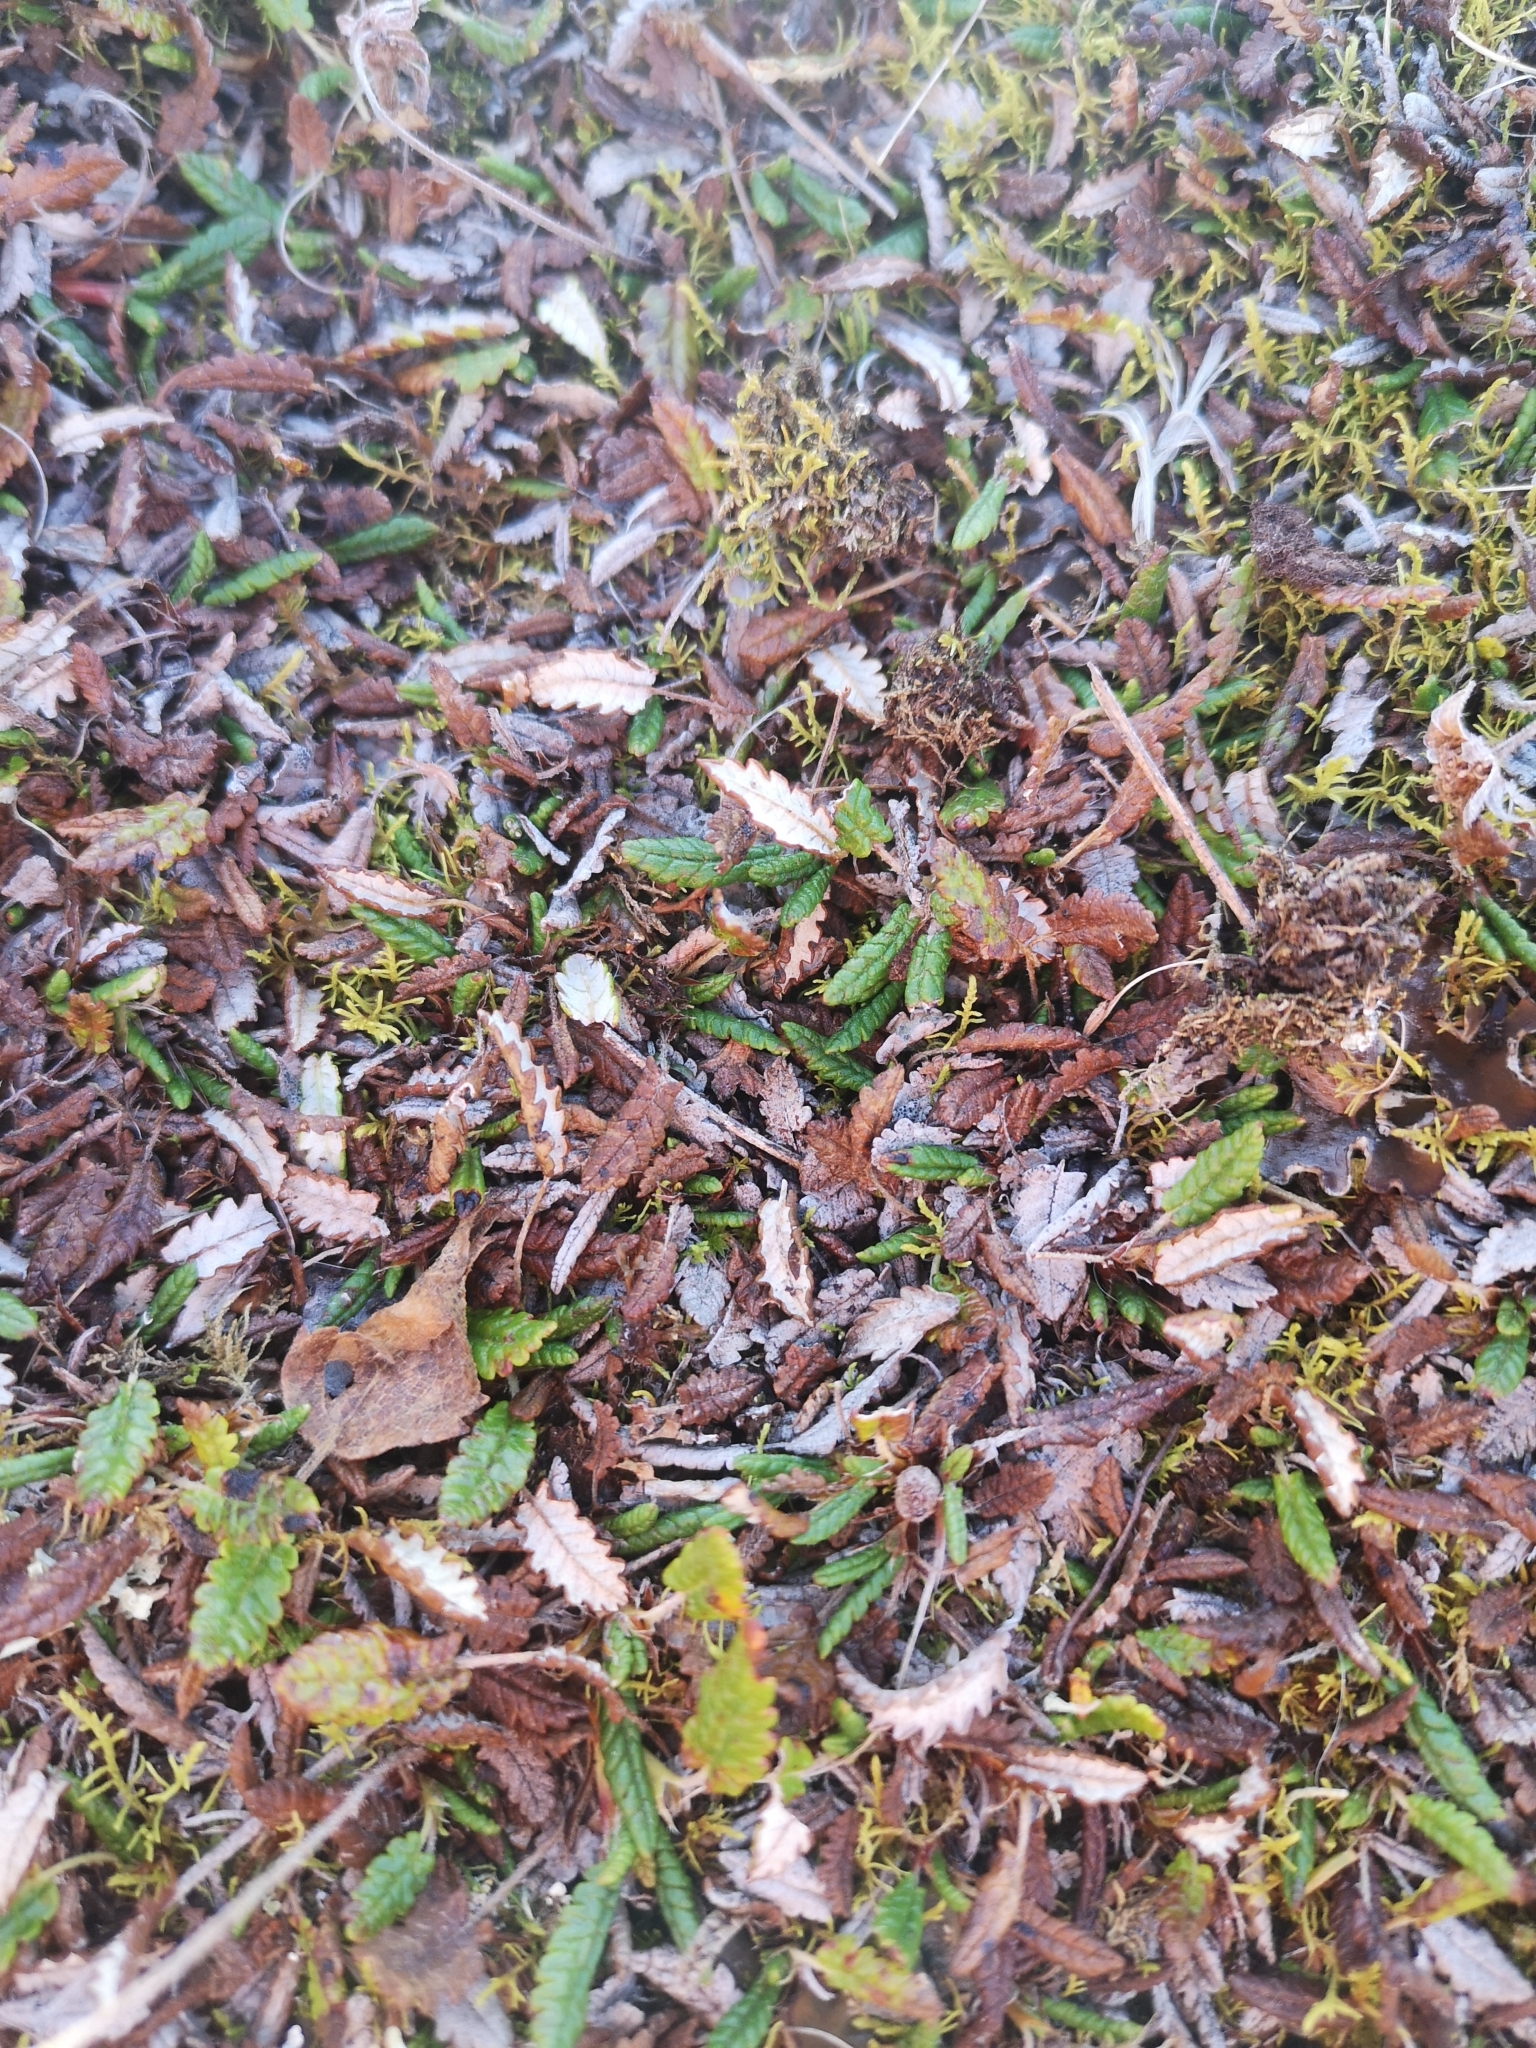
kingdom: Plantae
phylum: Tracheophyta
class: Magnoliopsida
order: Rosales
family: Rosaceae
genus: Dryas
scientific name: Dryas octopetala
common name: Eight-petal mountain-avens
